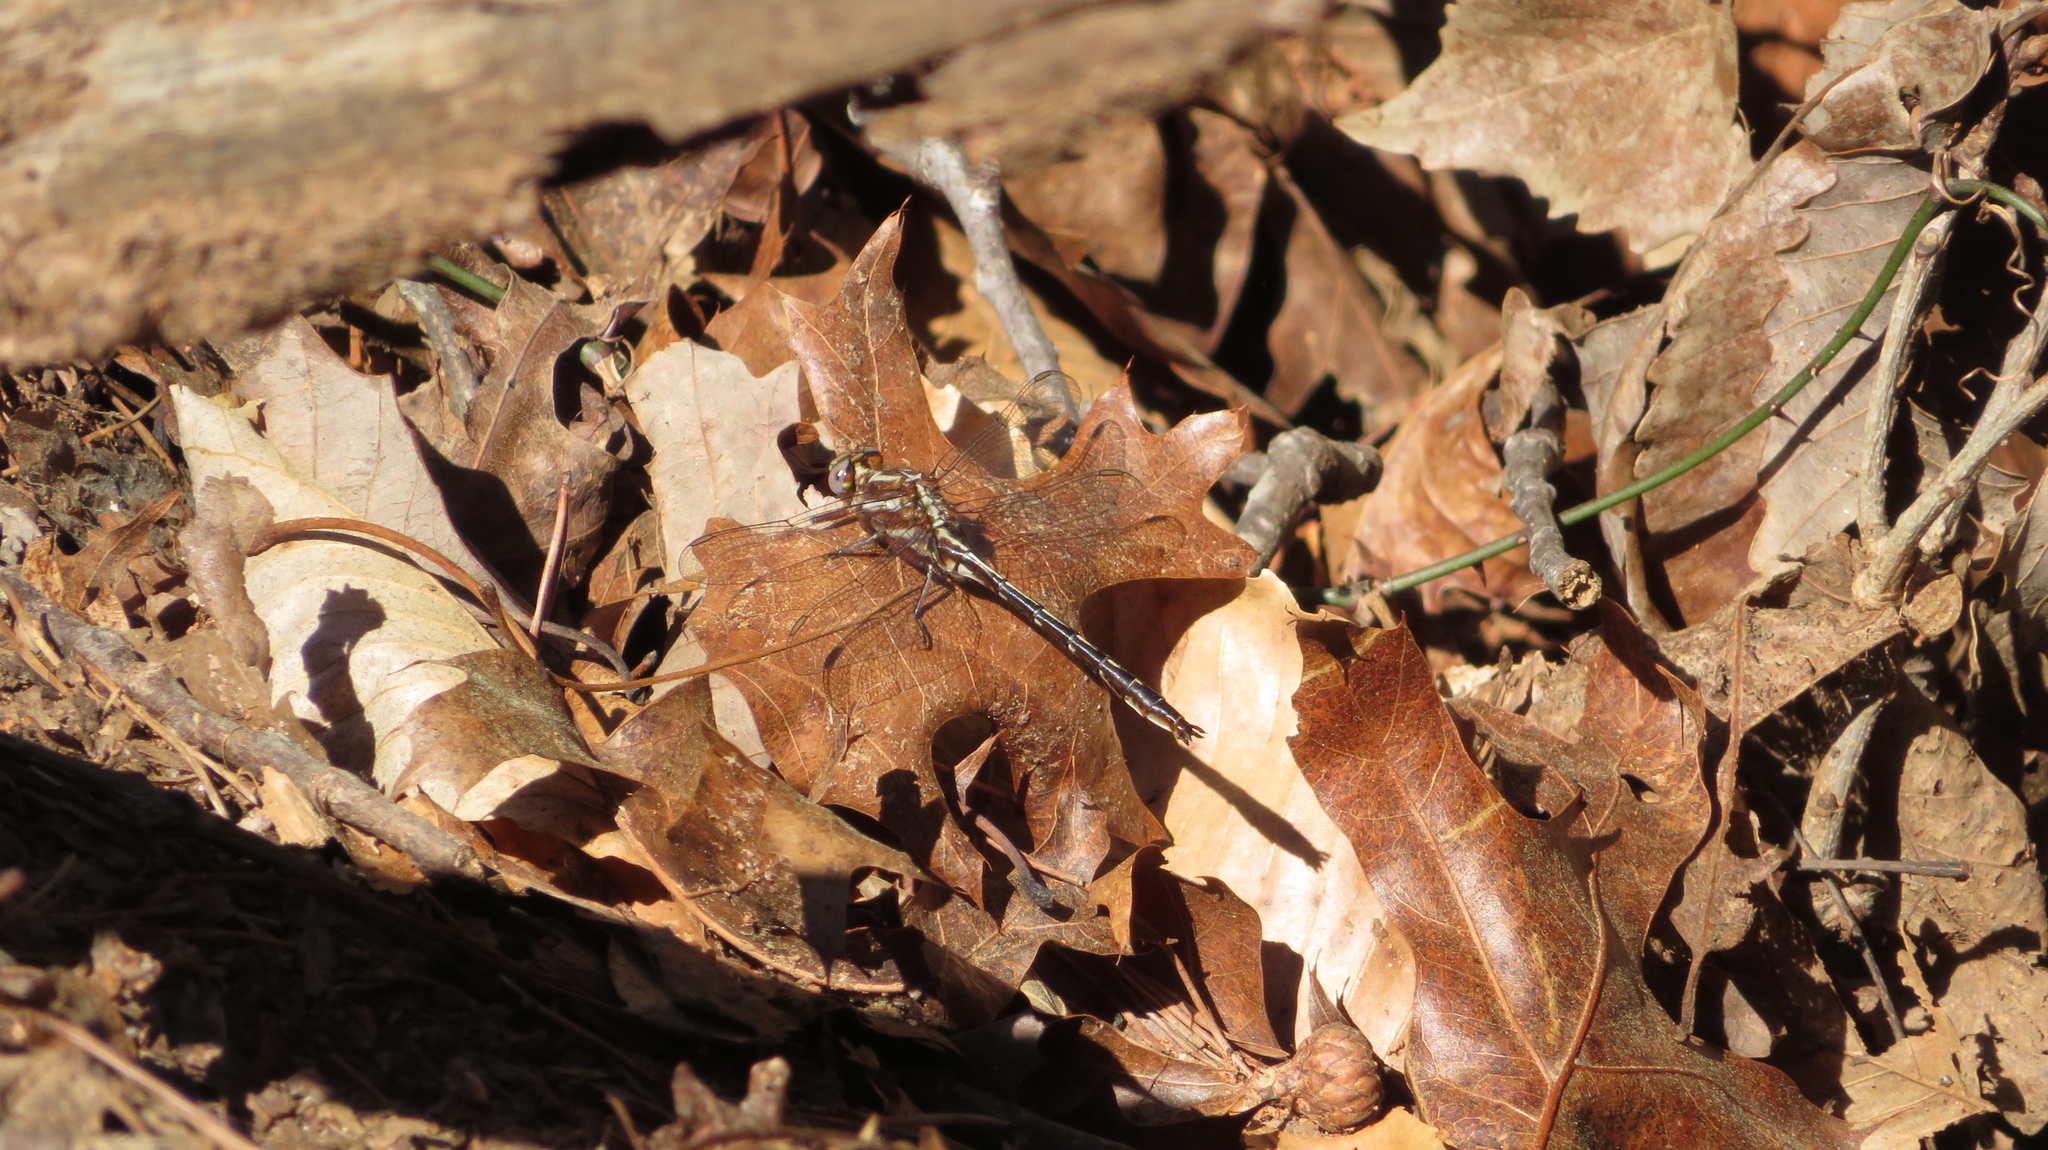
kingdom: Animalia
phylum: Arthropoda
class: Insecta
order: Odonata
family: Gomphidae
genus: Phanogomphus
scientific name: Phanogomphus lividus
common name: Ashy clubtail
